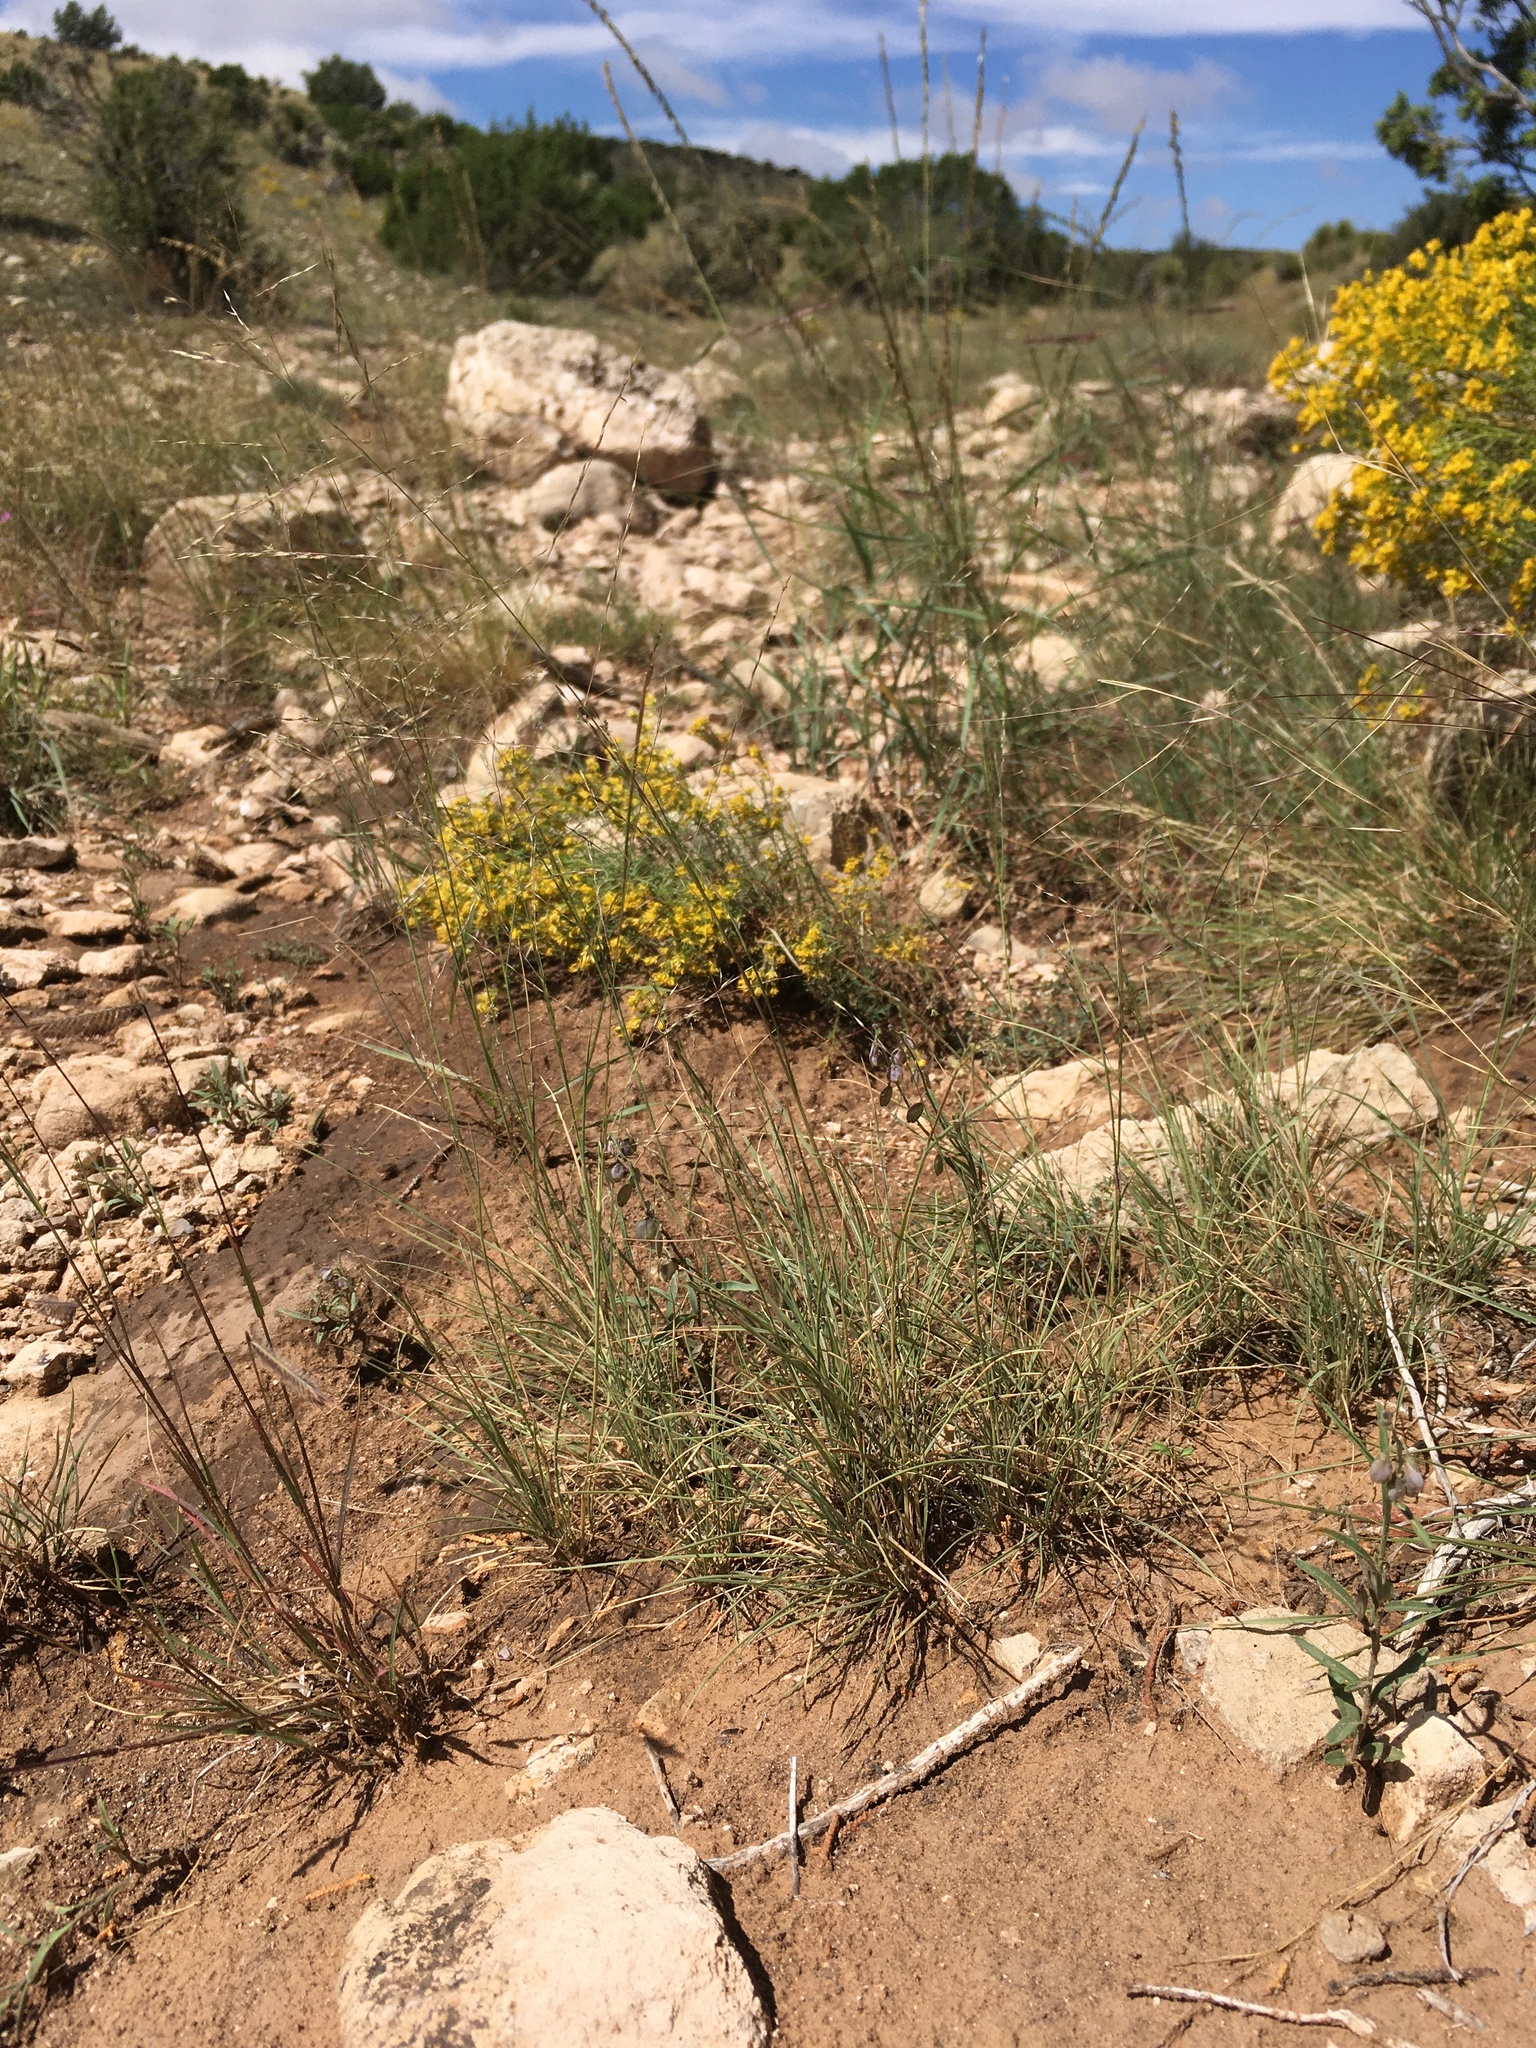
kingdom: Plantae
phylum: Tracheophyta
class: Liliopsida
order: Poales
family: Poaceae
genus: Muhlenbergia
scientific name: Muhlenbergia arenicola
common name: Sand muhly
